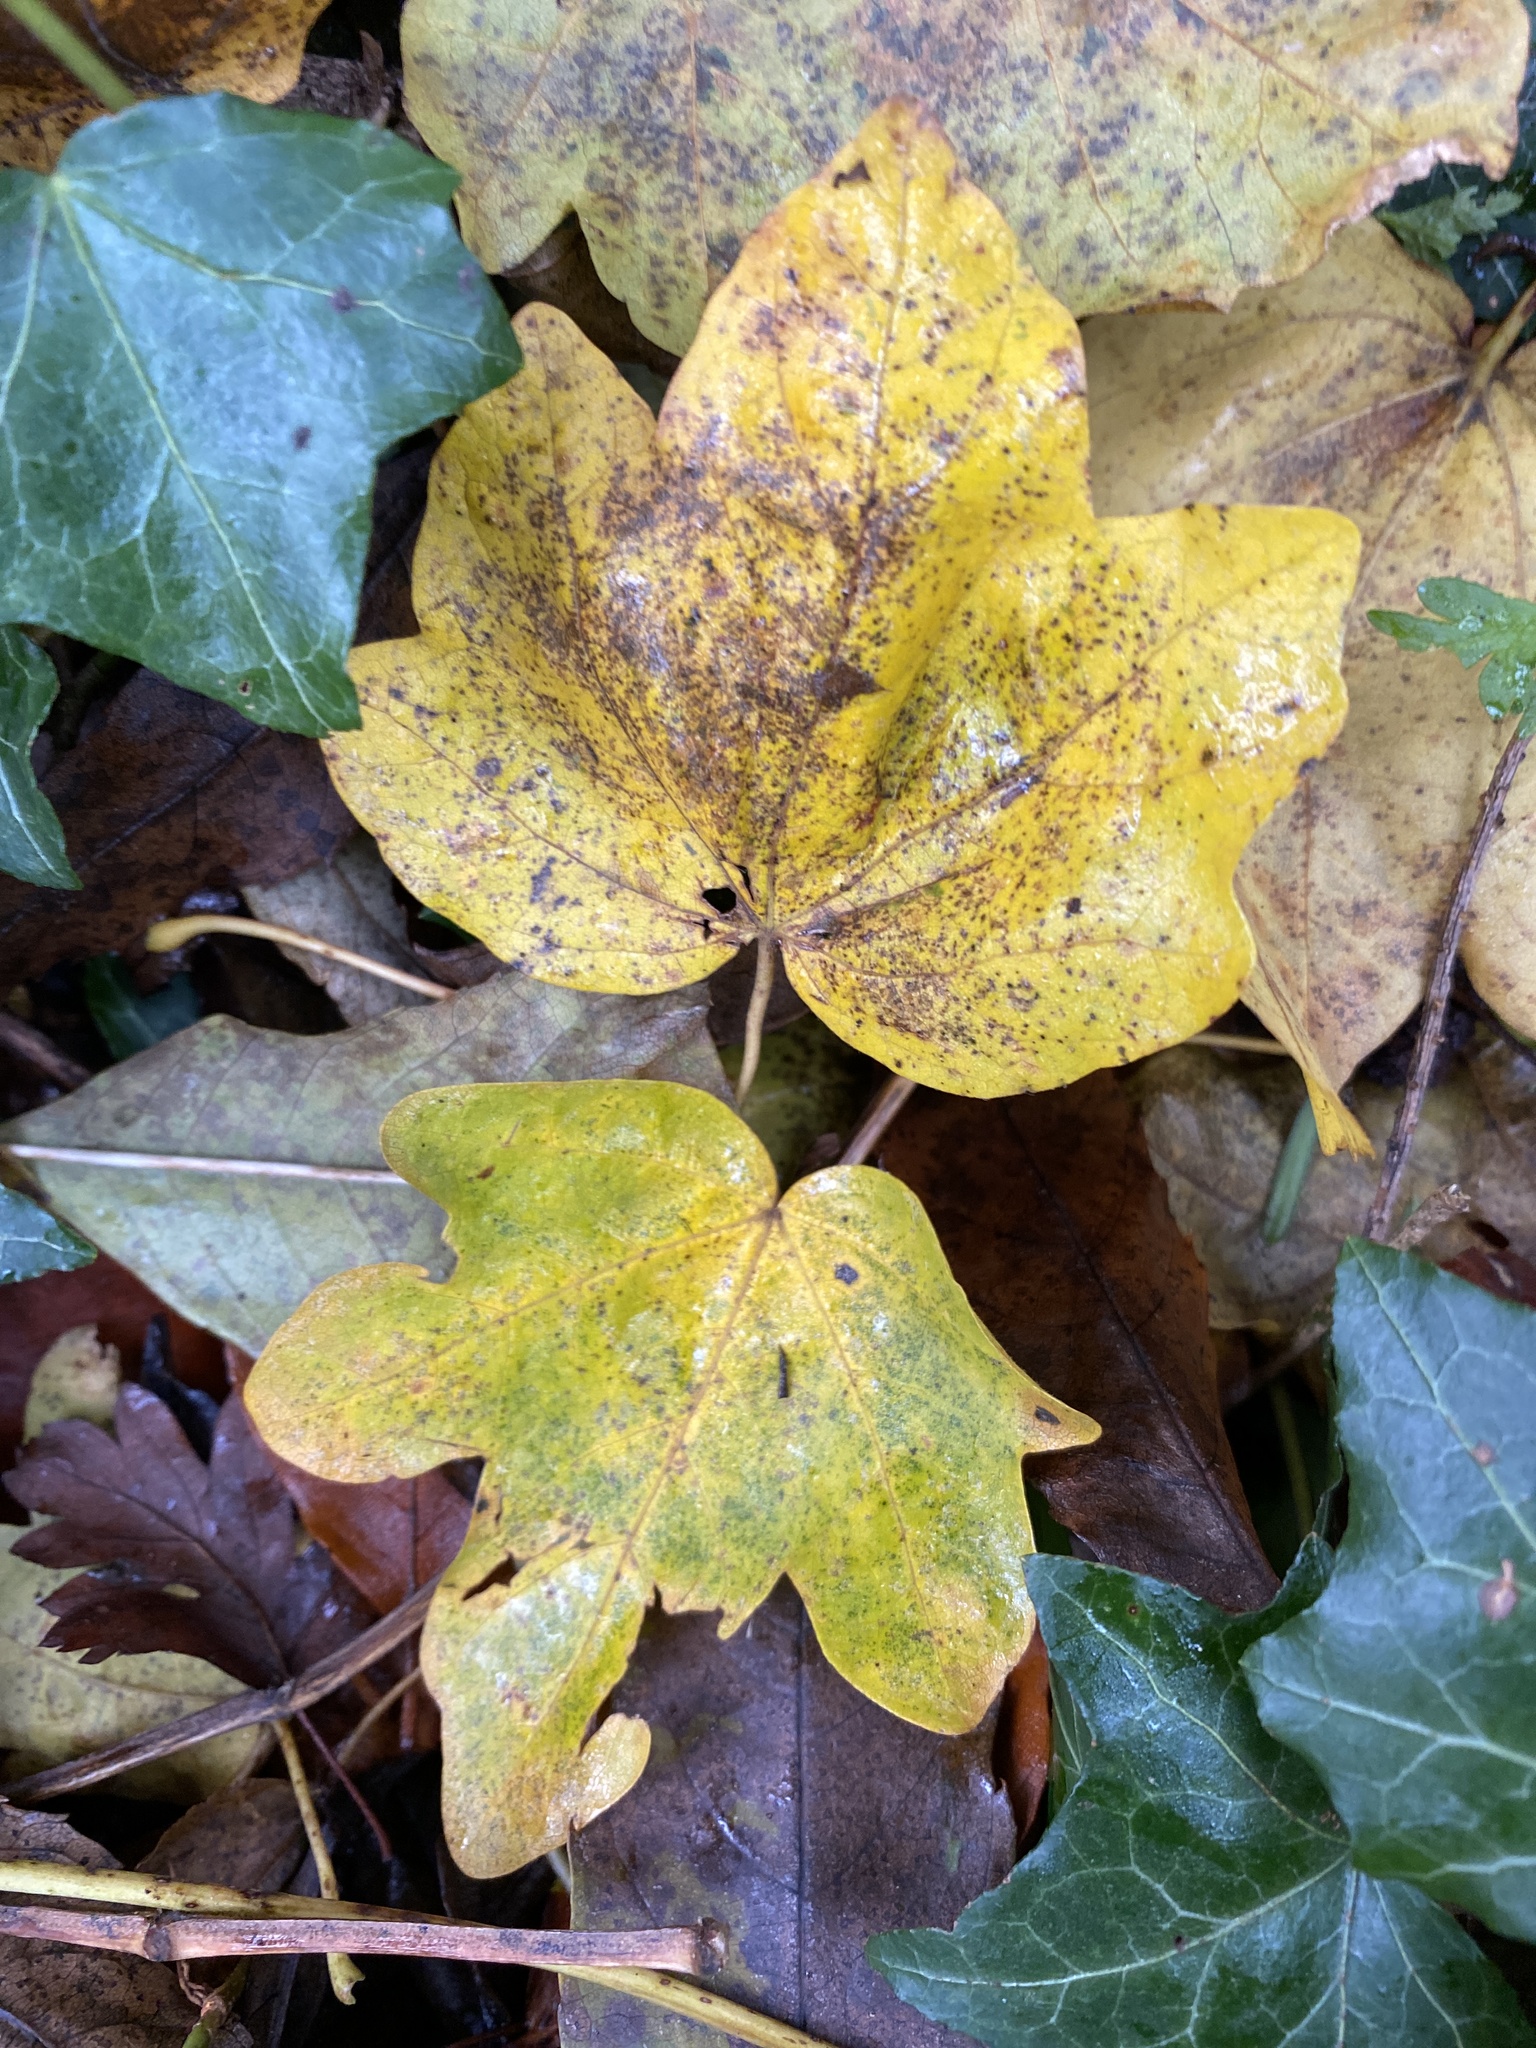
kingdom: Plantae
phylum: Tracheophyta
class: Magnoliopsida
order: Sapindales
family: Sapindaceae
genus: Acer
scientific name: Acer campestre
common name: Field maple
